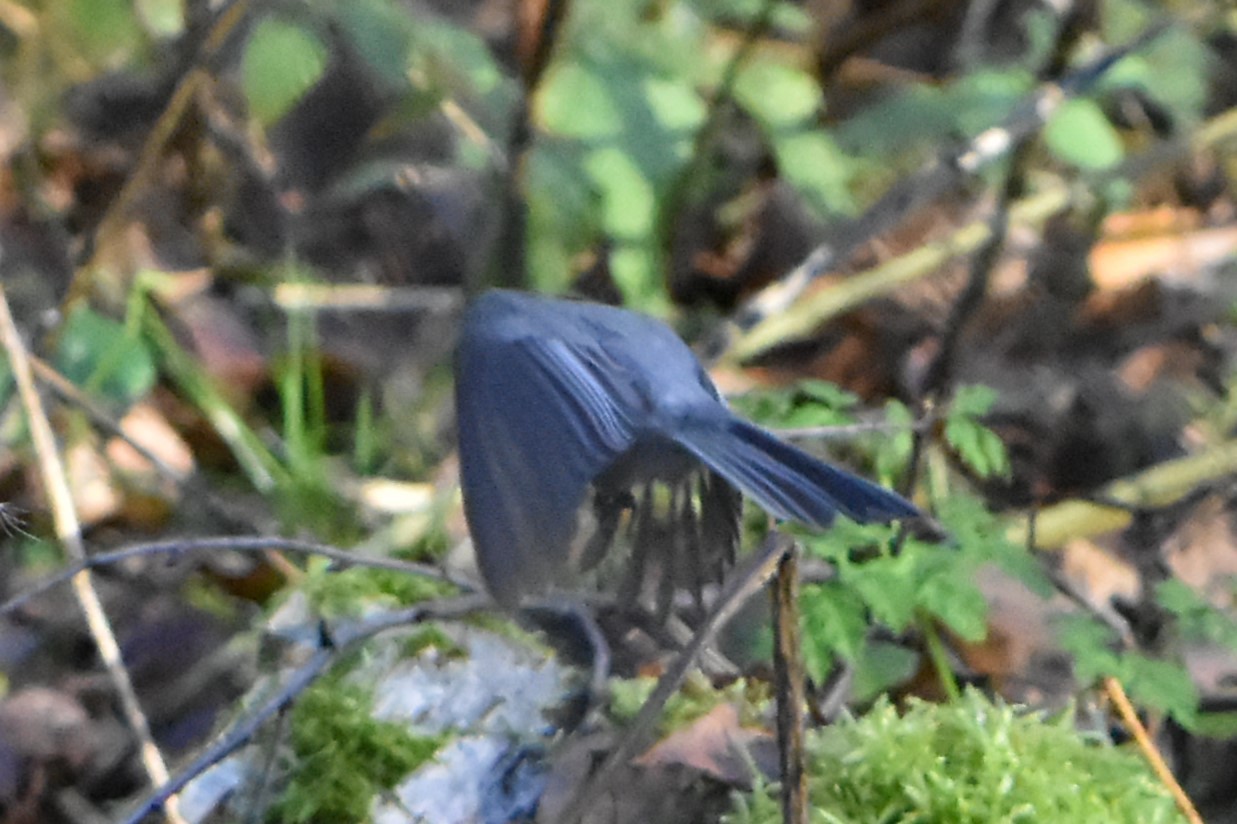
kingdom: Animalia
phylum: Chordata
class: Aves
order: Passeriformes
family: Paridae
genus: Poecile
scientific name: Poecile montanus
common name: Willow tit
